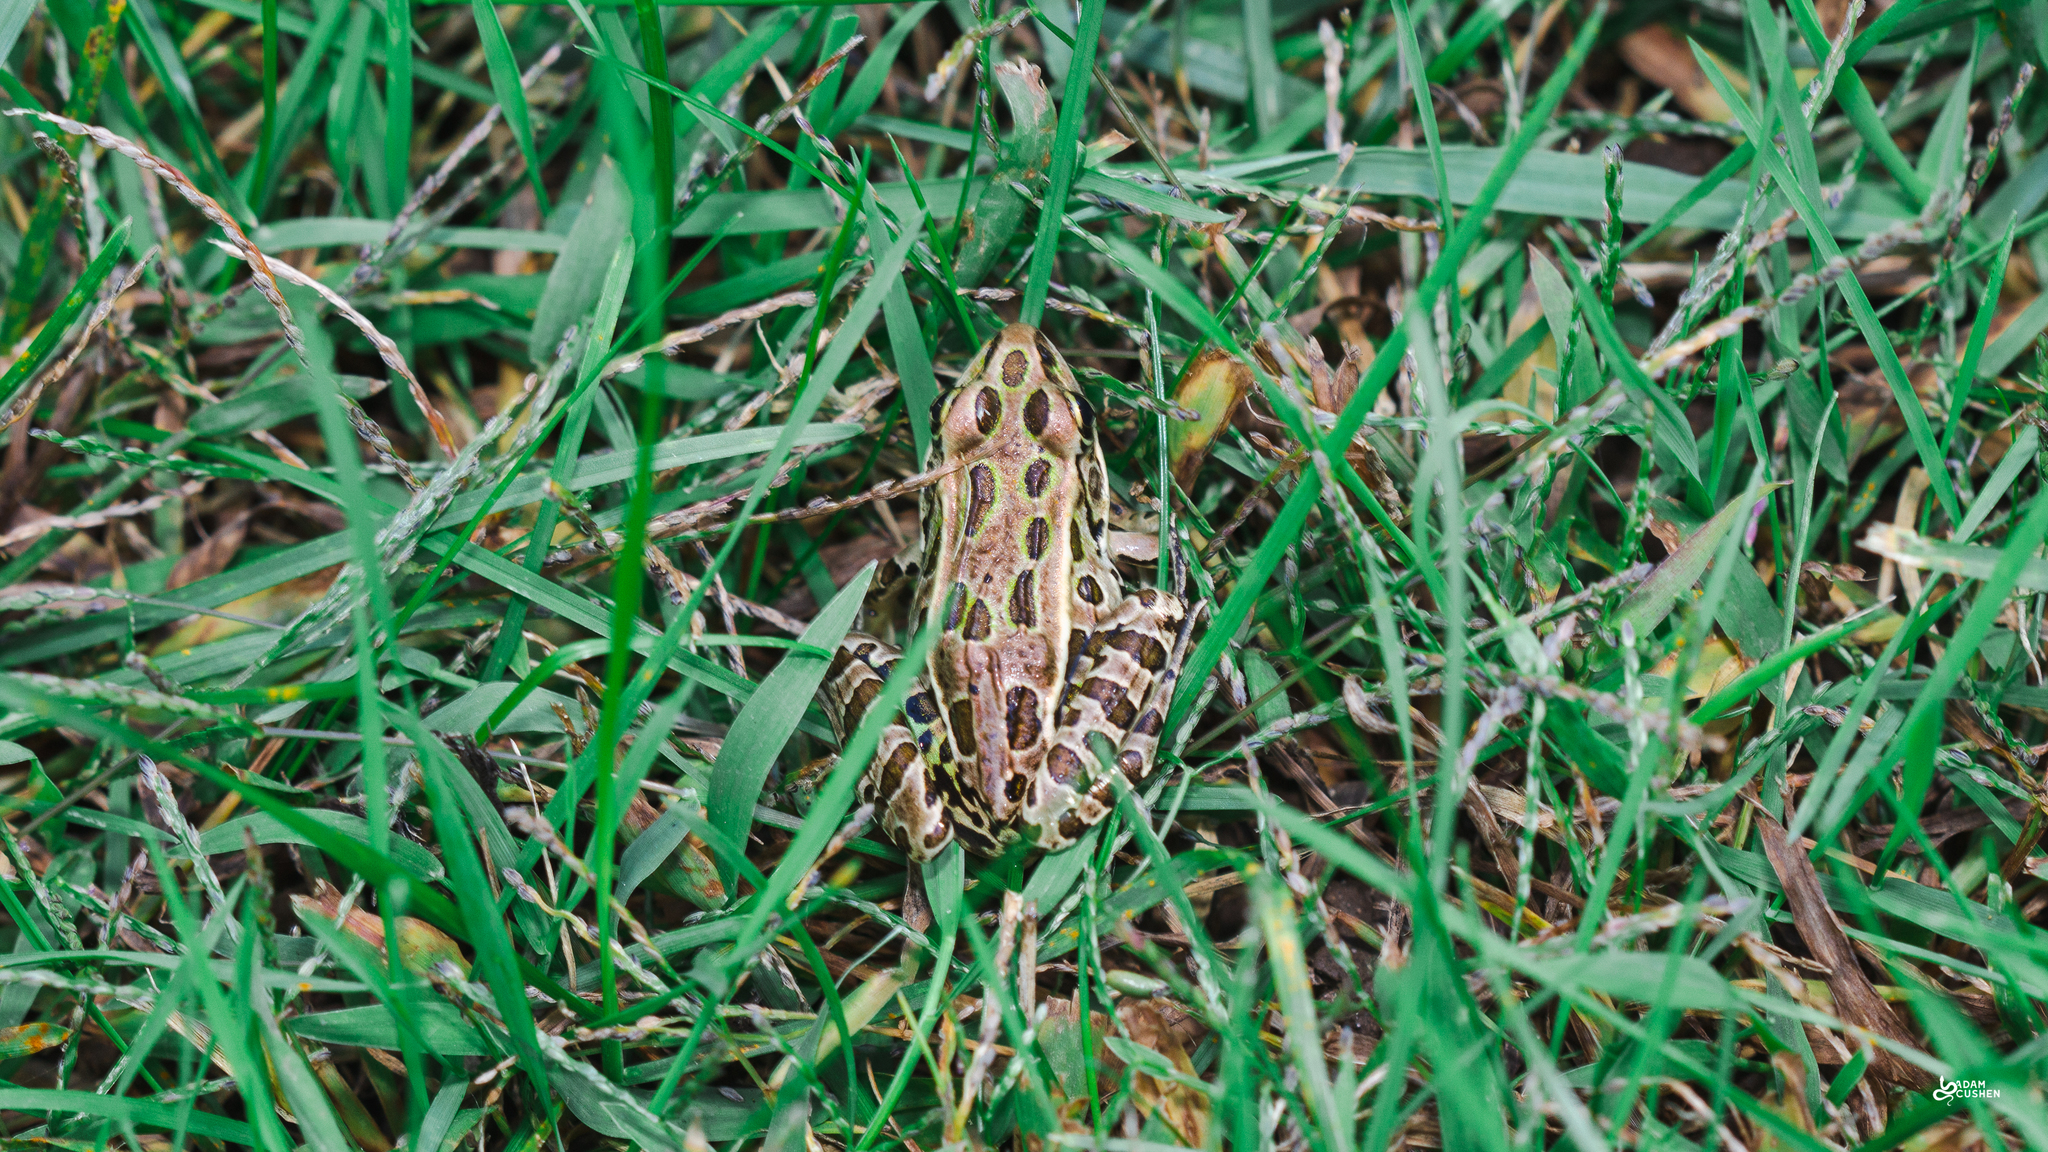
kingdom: Animalia
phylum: Chordata
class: Amphibia
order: Anura
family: Ranidae
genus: Lithobates
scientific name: Lithobates pipiens
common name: Northern leopard frog
